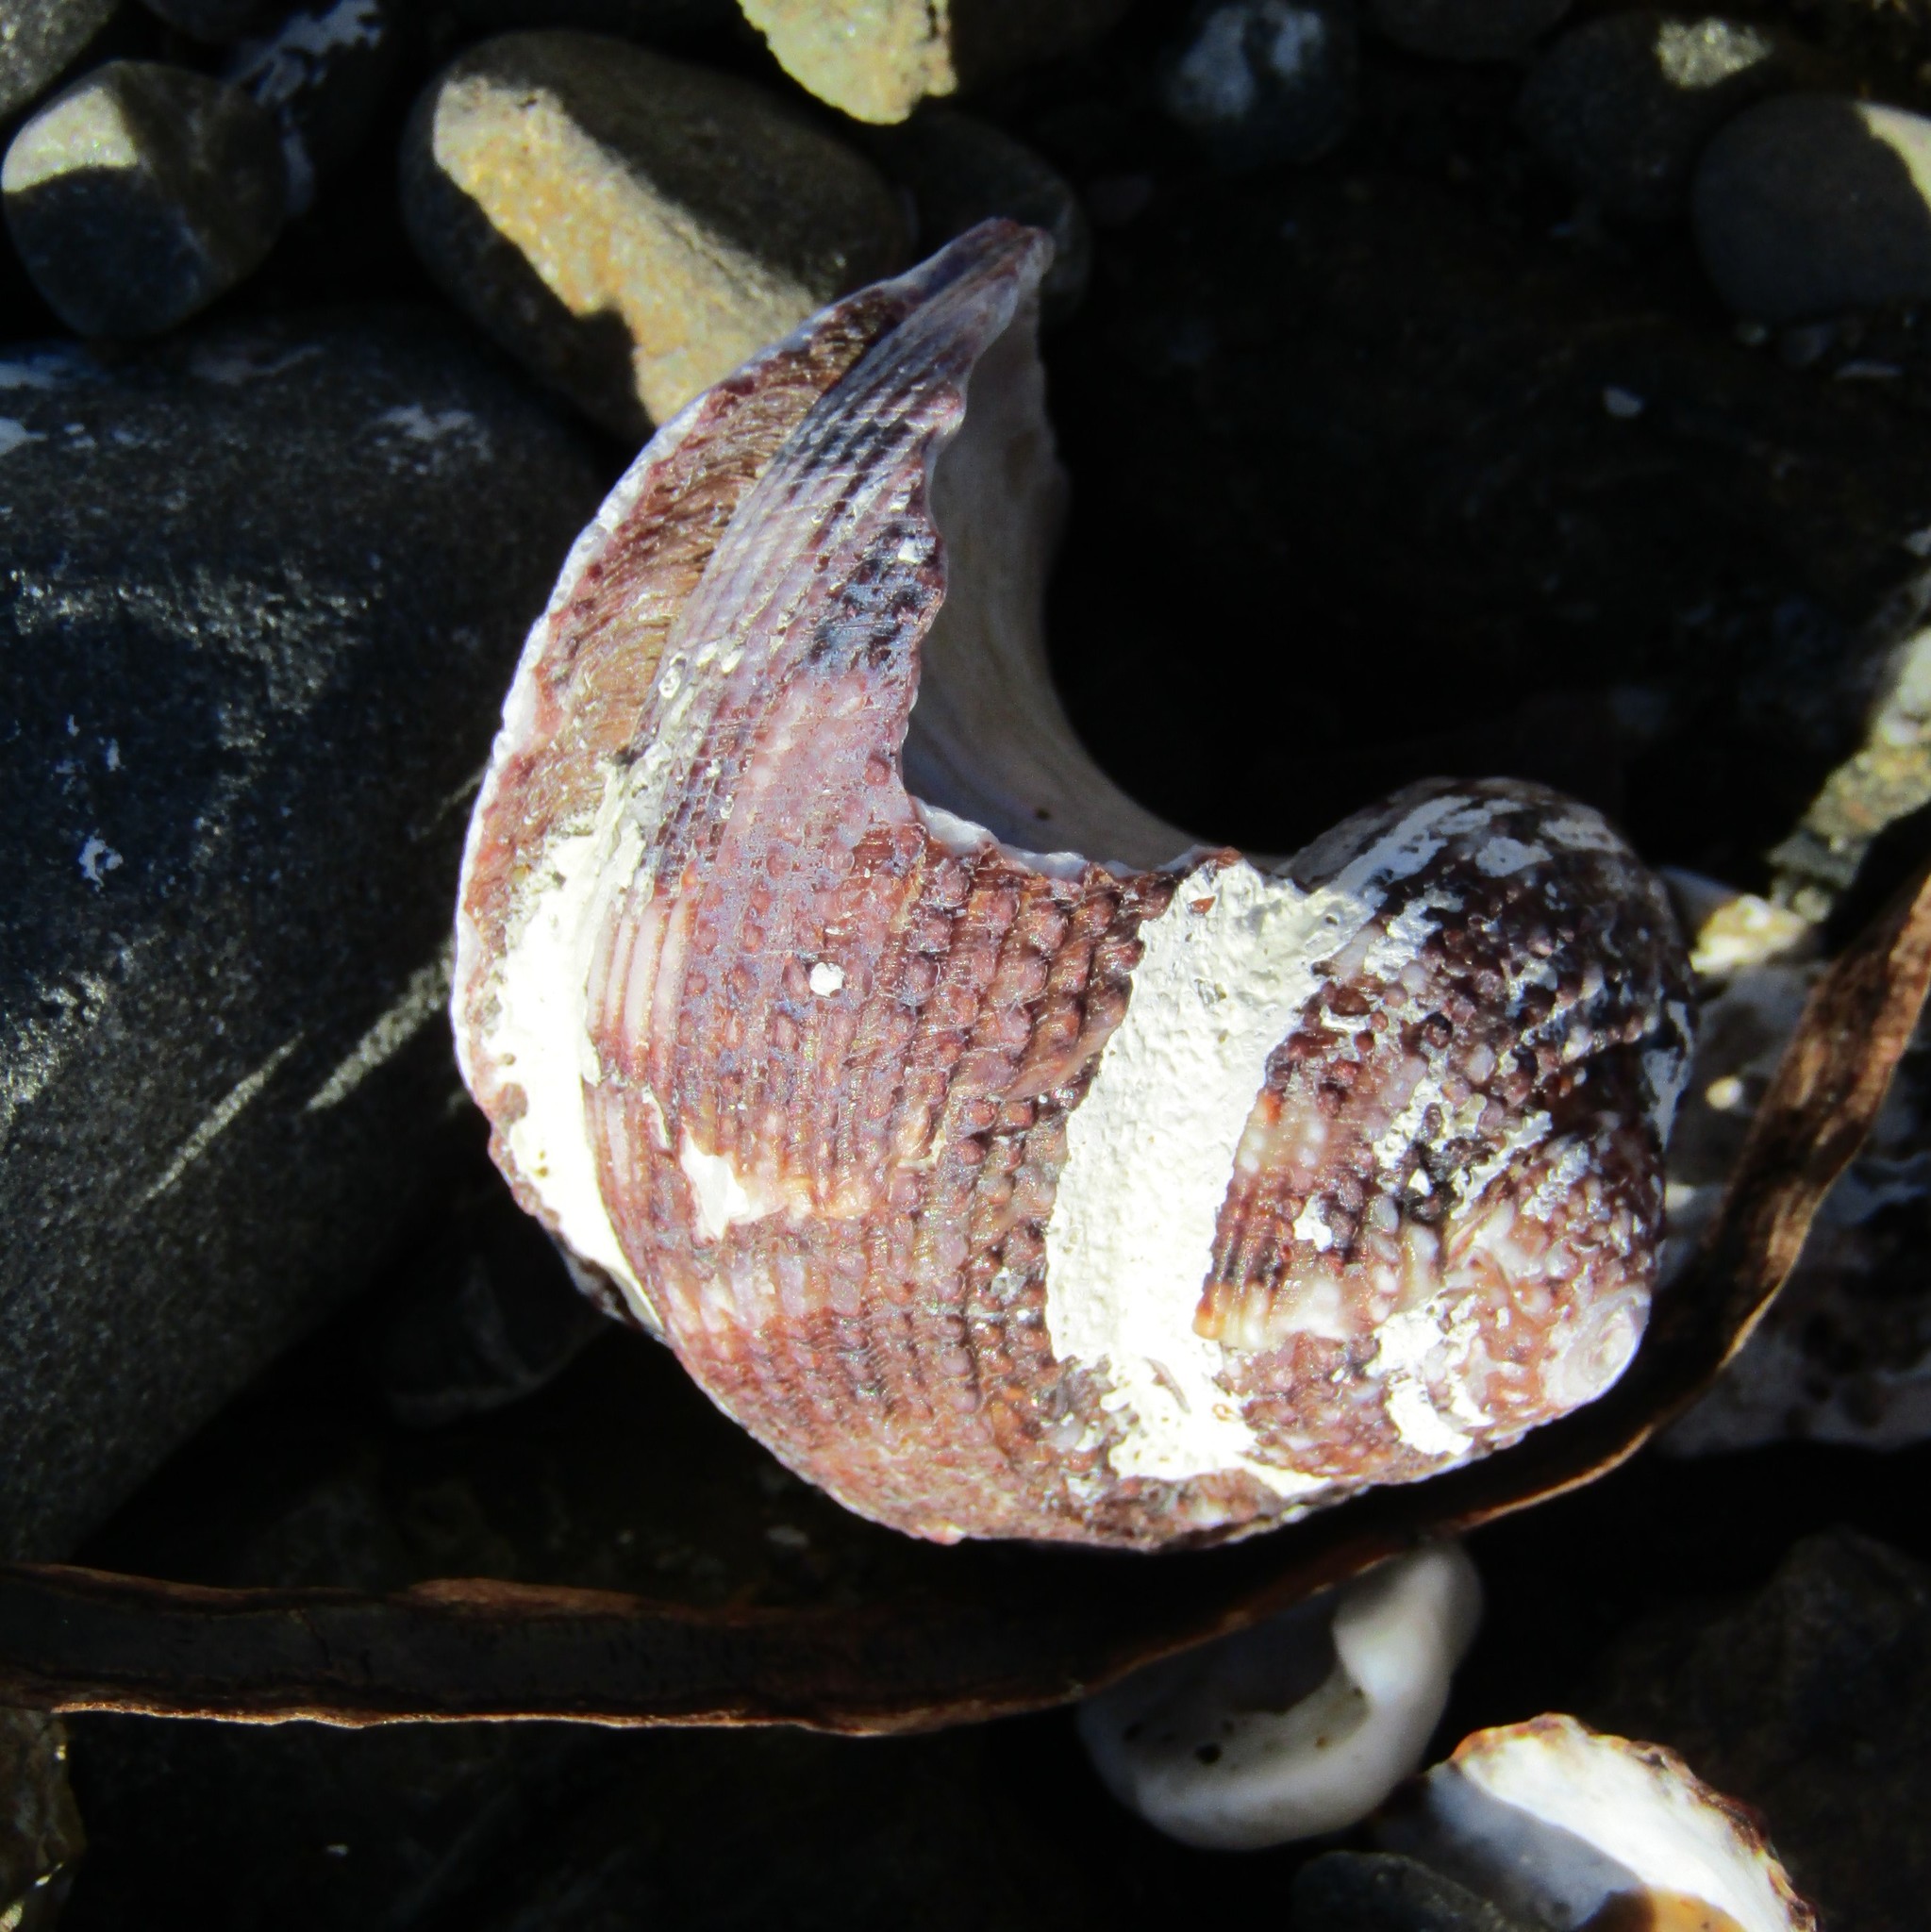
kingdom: Animalia
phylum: Mollusca
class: Gastropoda
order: Trochida
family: Turbinidae
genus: Modelia
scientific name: Modelia granosa
